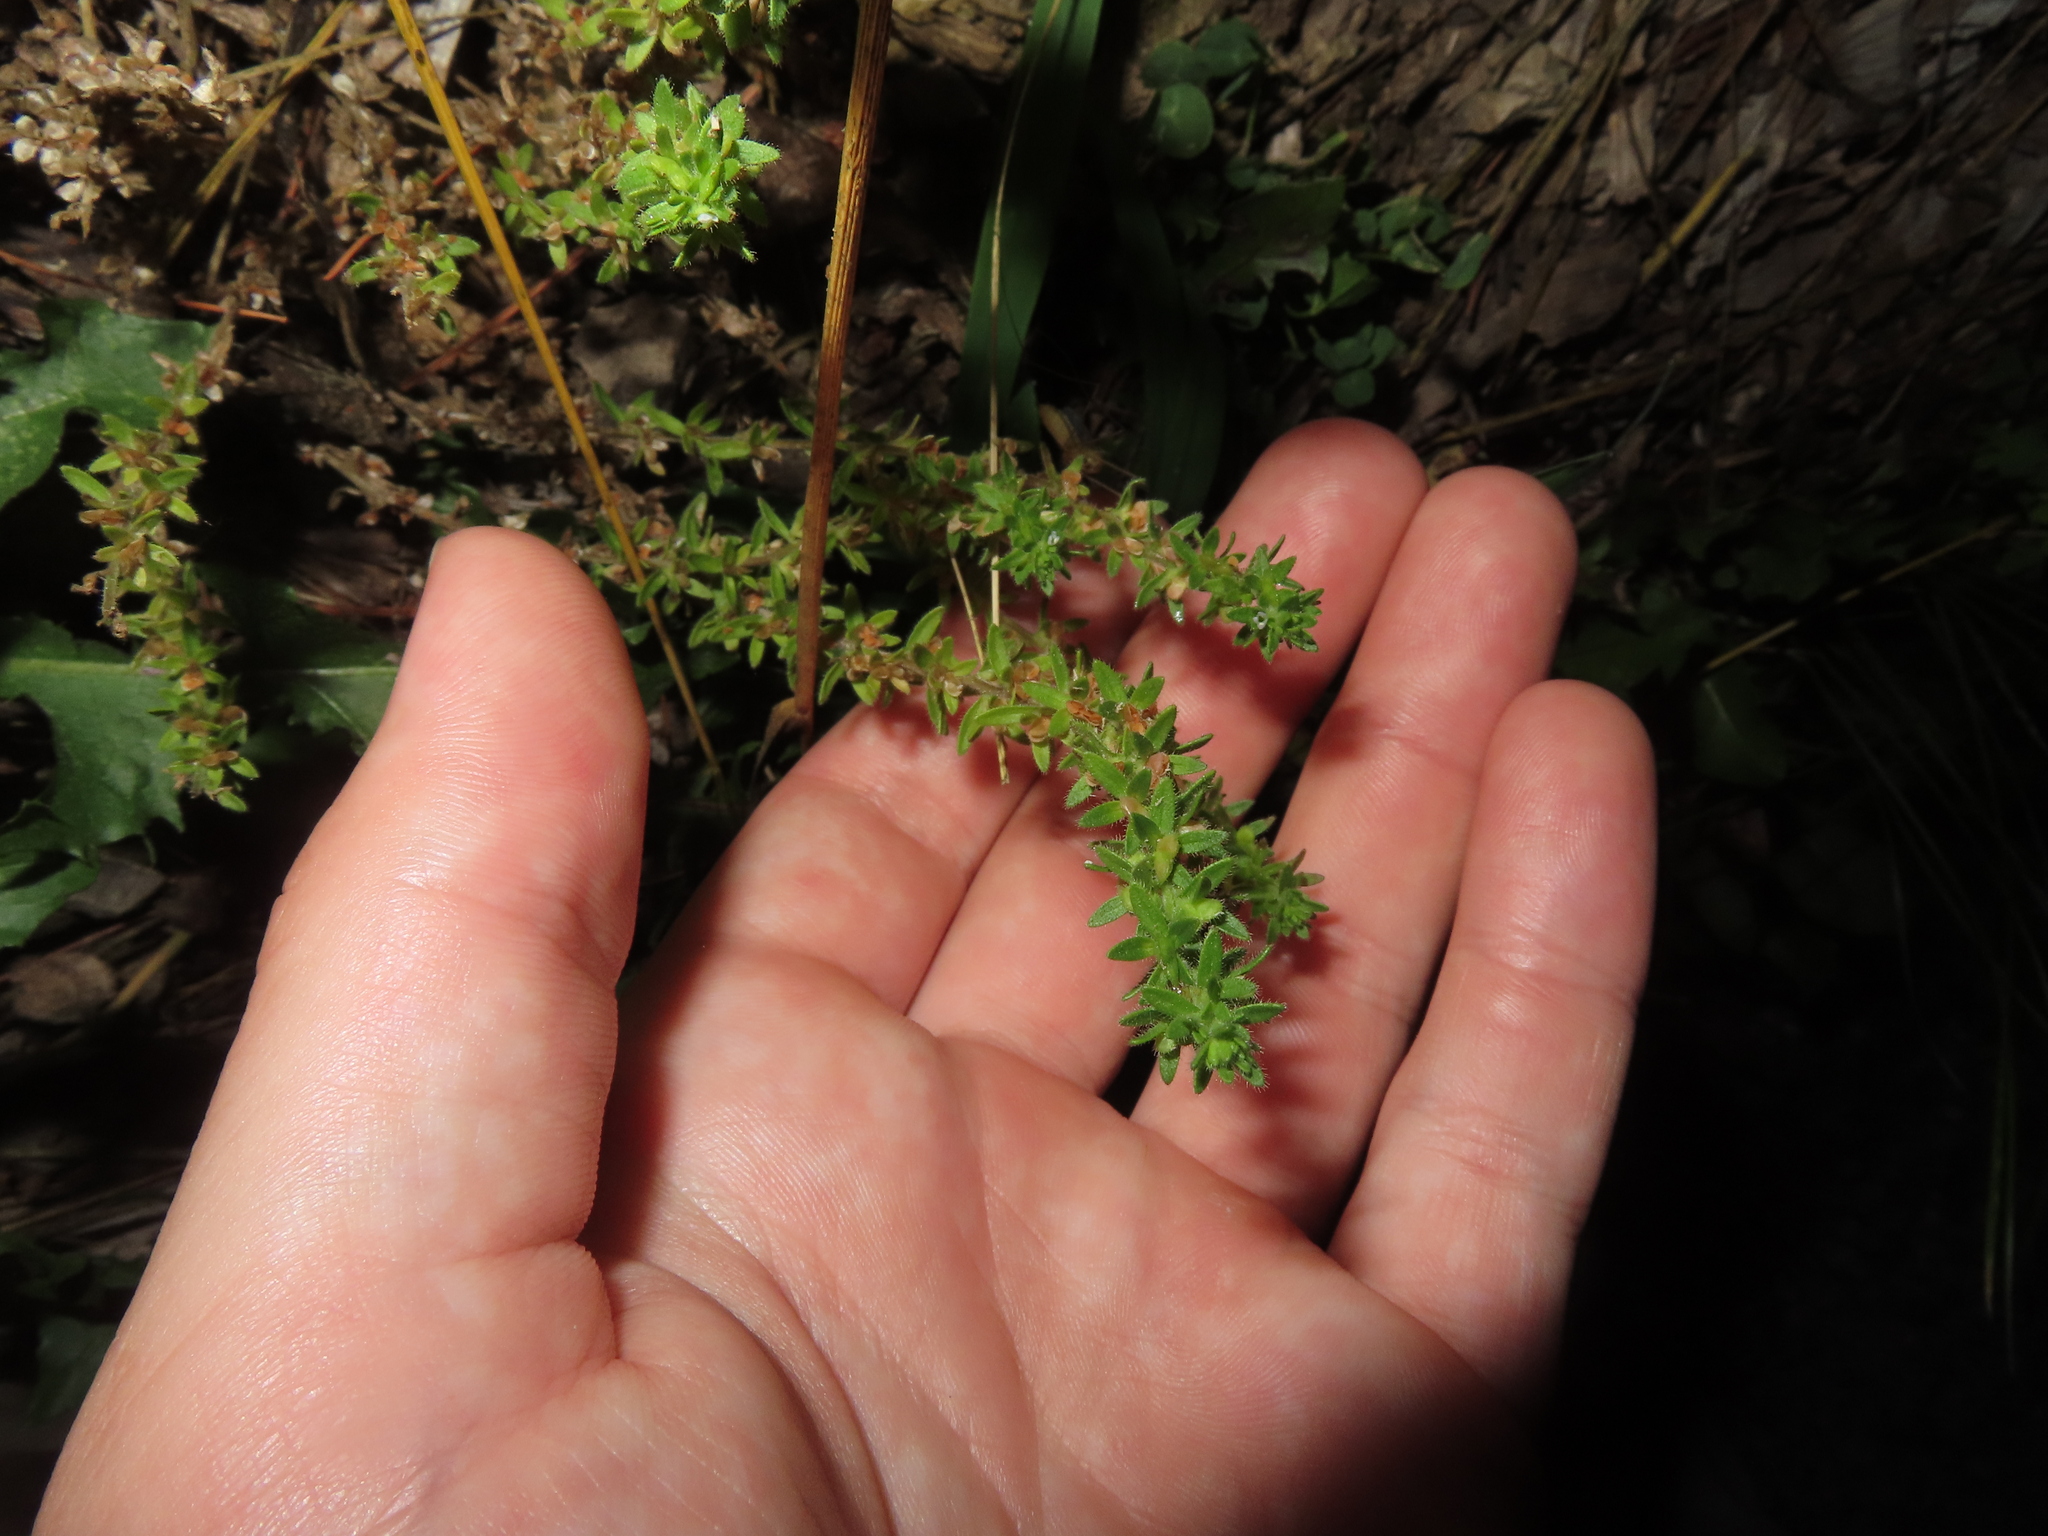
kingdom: Plantae
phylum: Tracheophyta
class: Magnoliopsida
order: Lamiales
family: Plantaginaceae
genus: Veronica
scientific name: Veronica arvensis
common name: Corn speedwell
